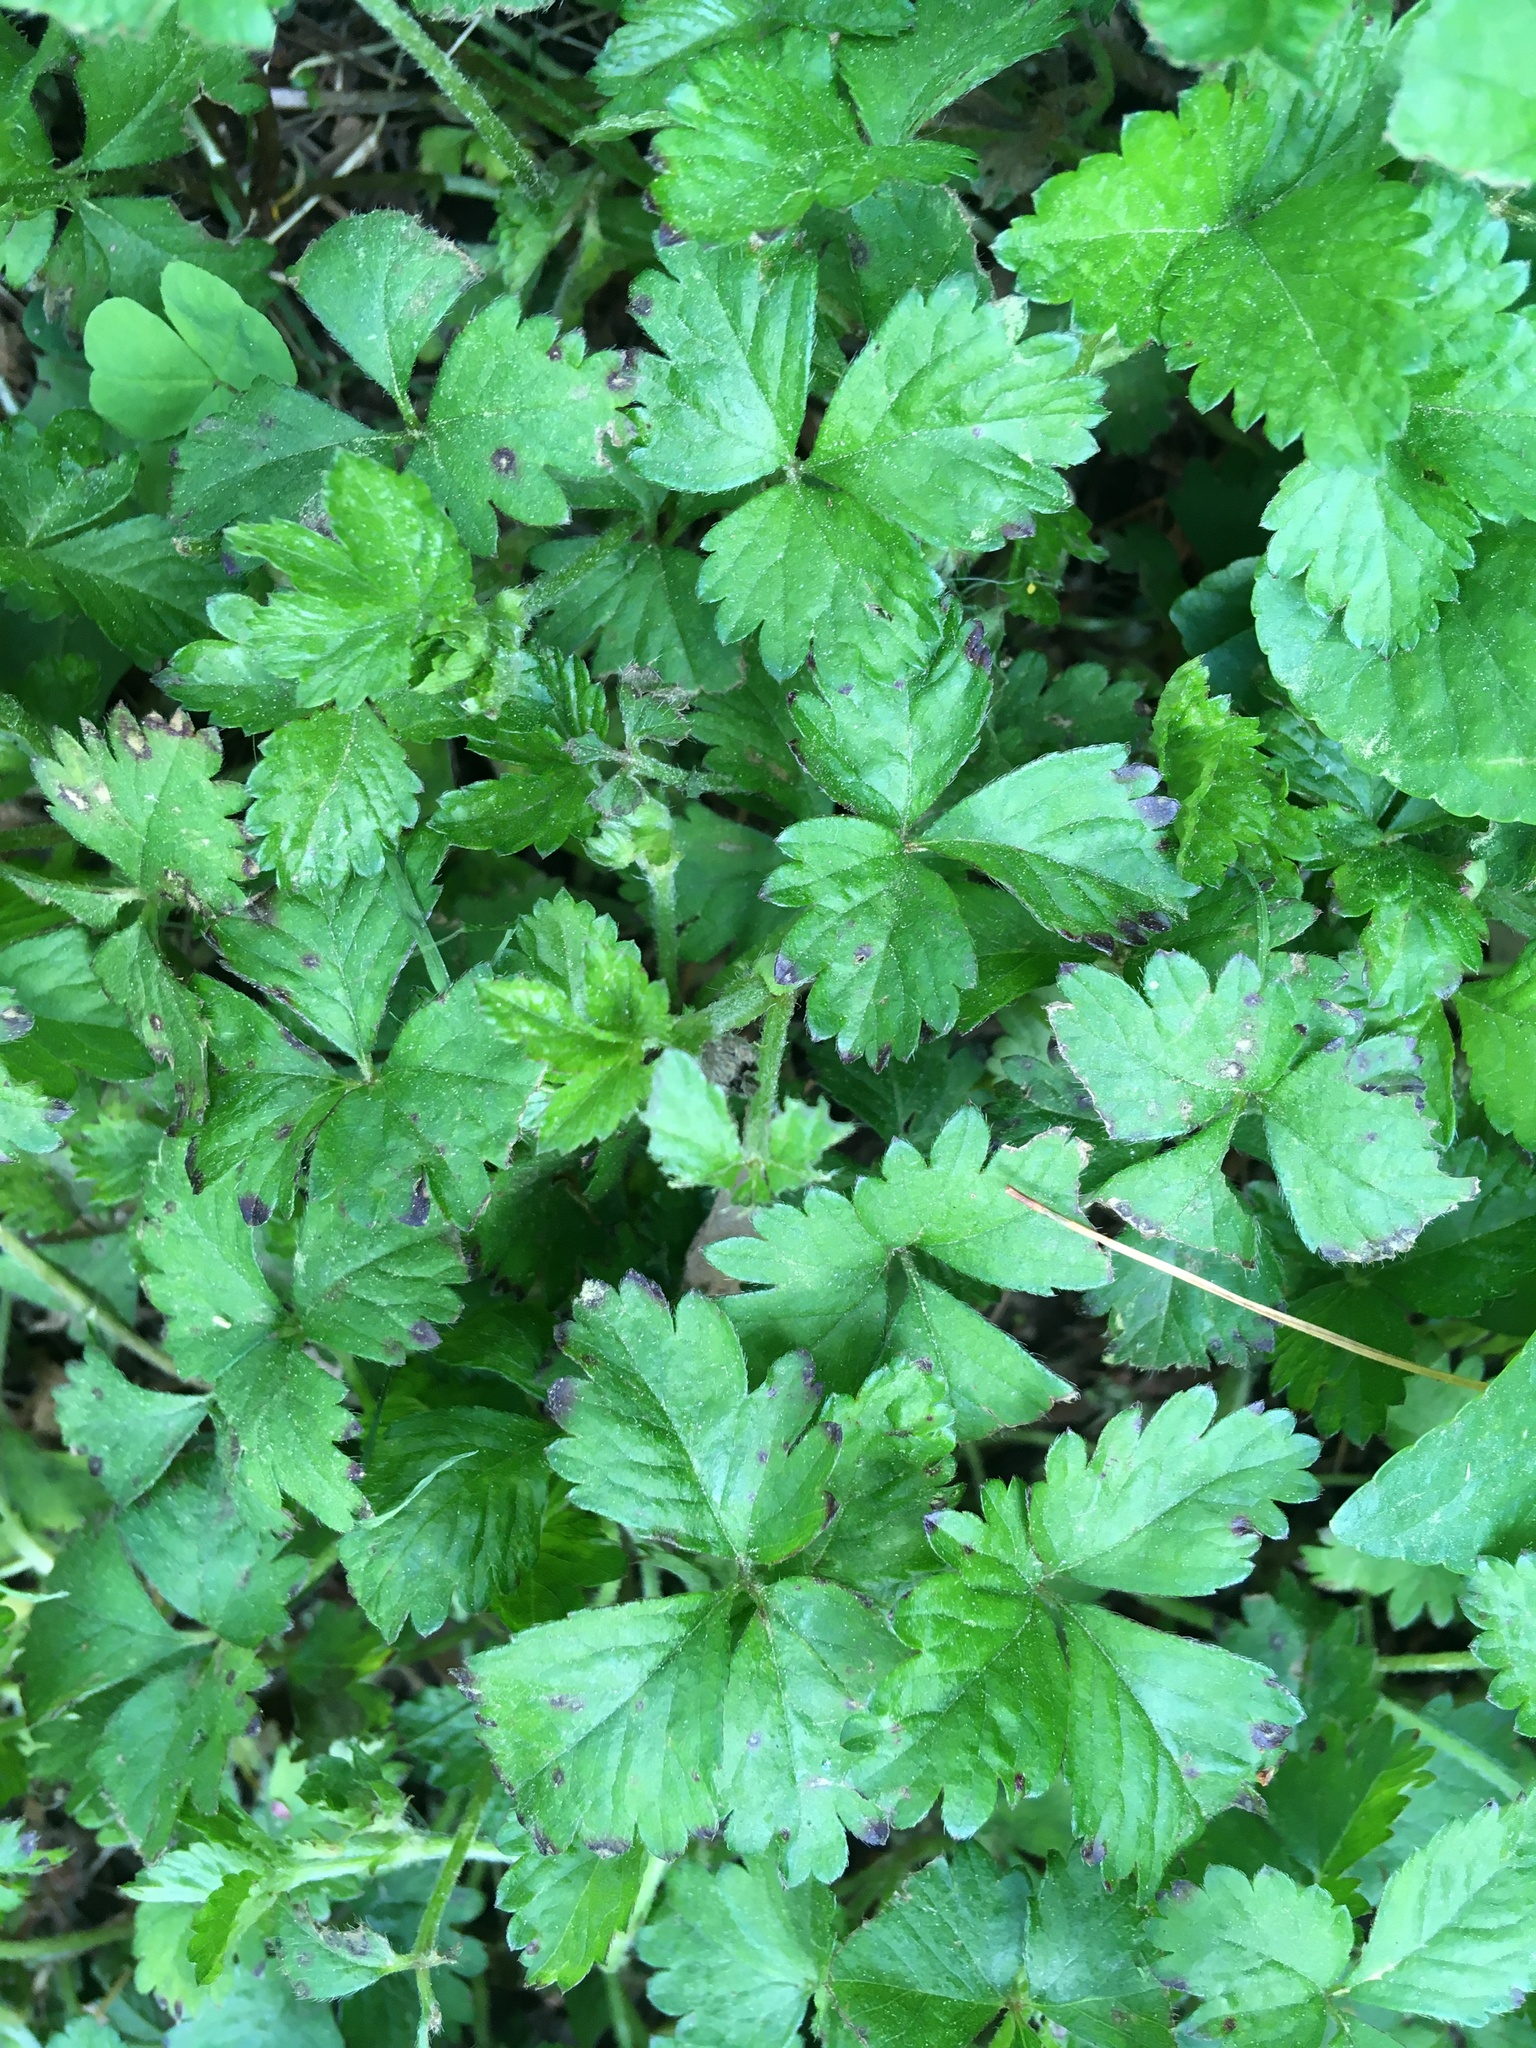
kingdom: Plantae
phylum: Tracheophyta
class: Magnoliopsida
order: Rosales
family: Rosaceae
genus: Potentilla
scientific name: Potentilla indica
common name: Yellow-flowered strawberry
